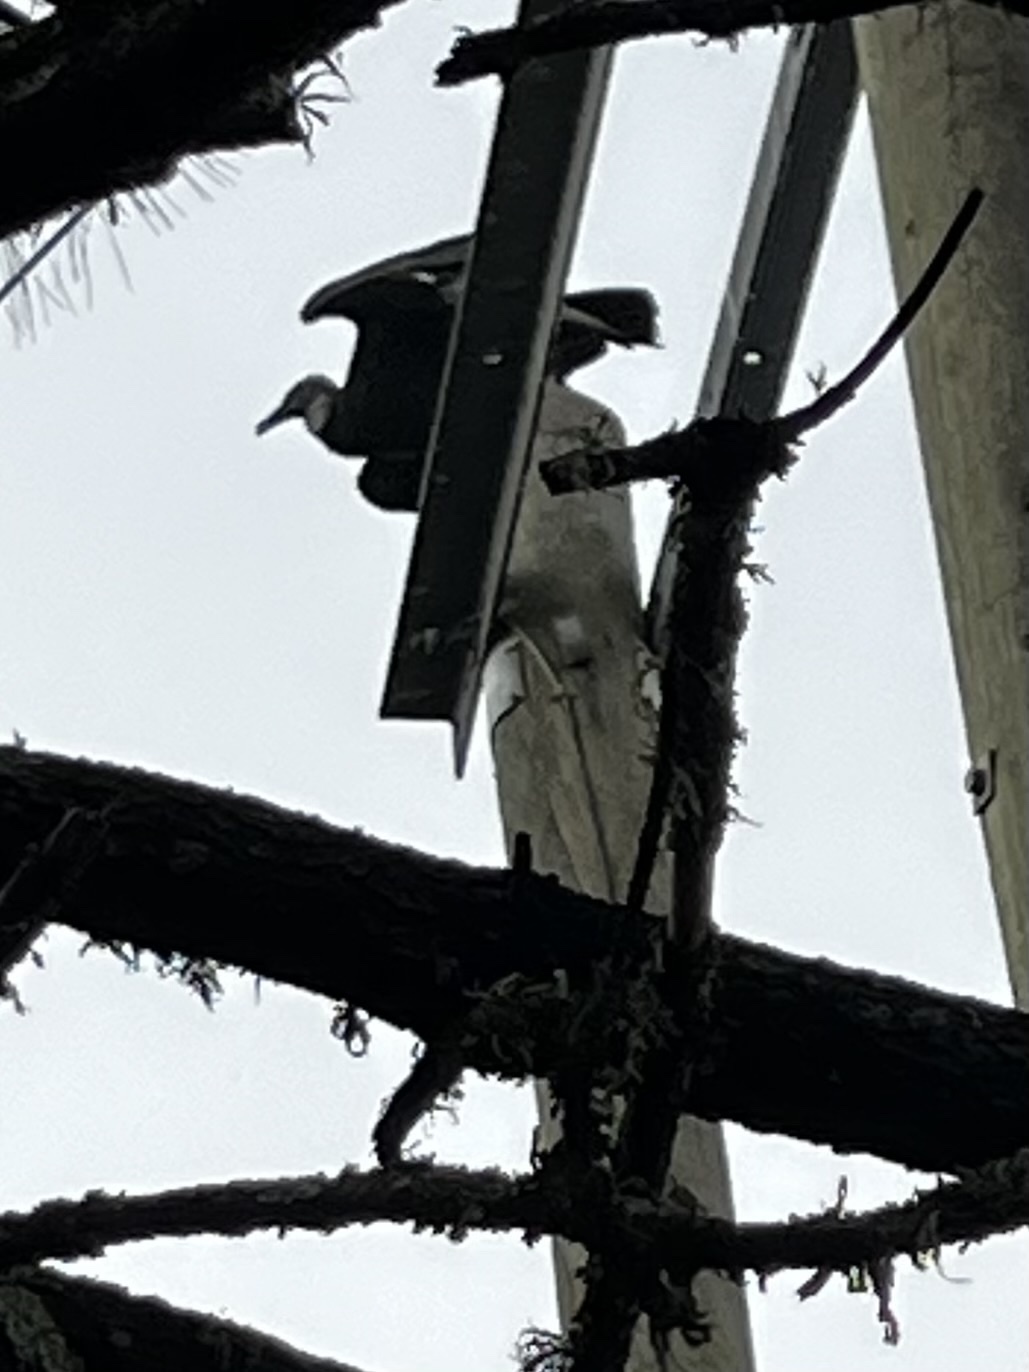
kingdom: Animalia
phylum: Chordata
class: Aves
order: Accipitriformes
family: Cathartidae
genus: Coragyps
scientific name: Coragyps atratus
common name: Black vulture
